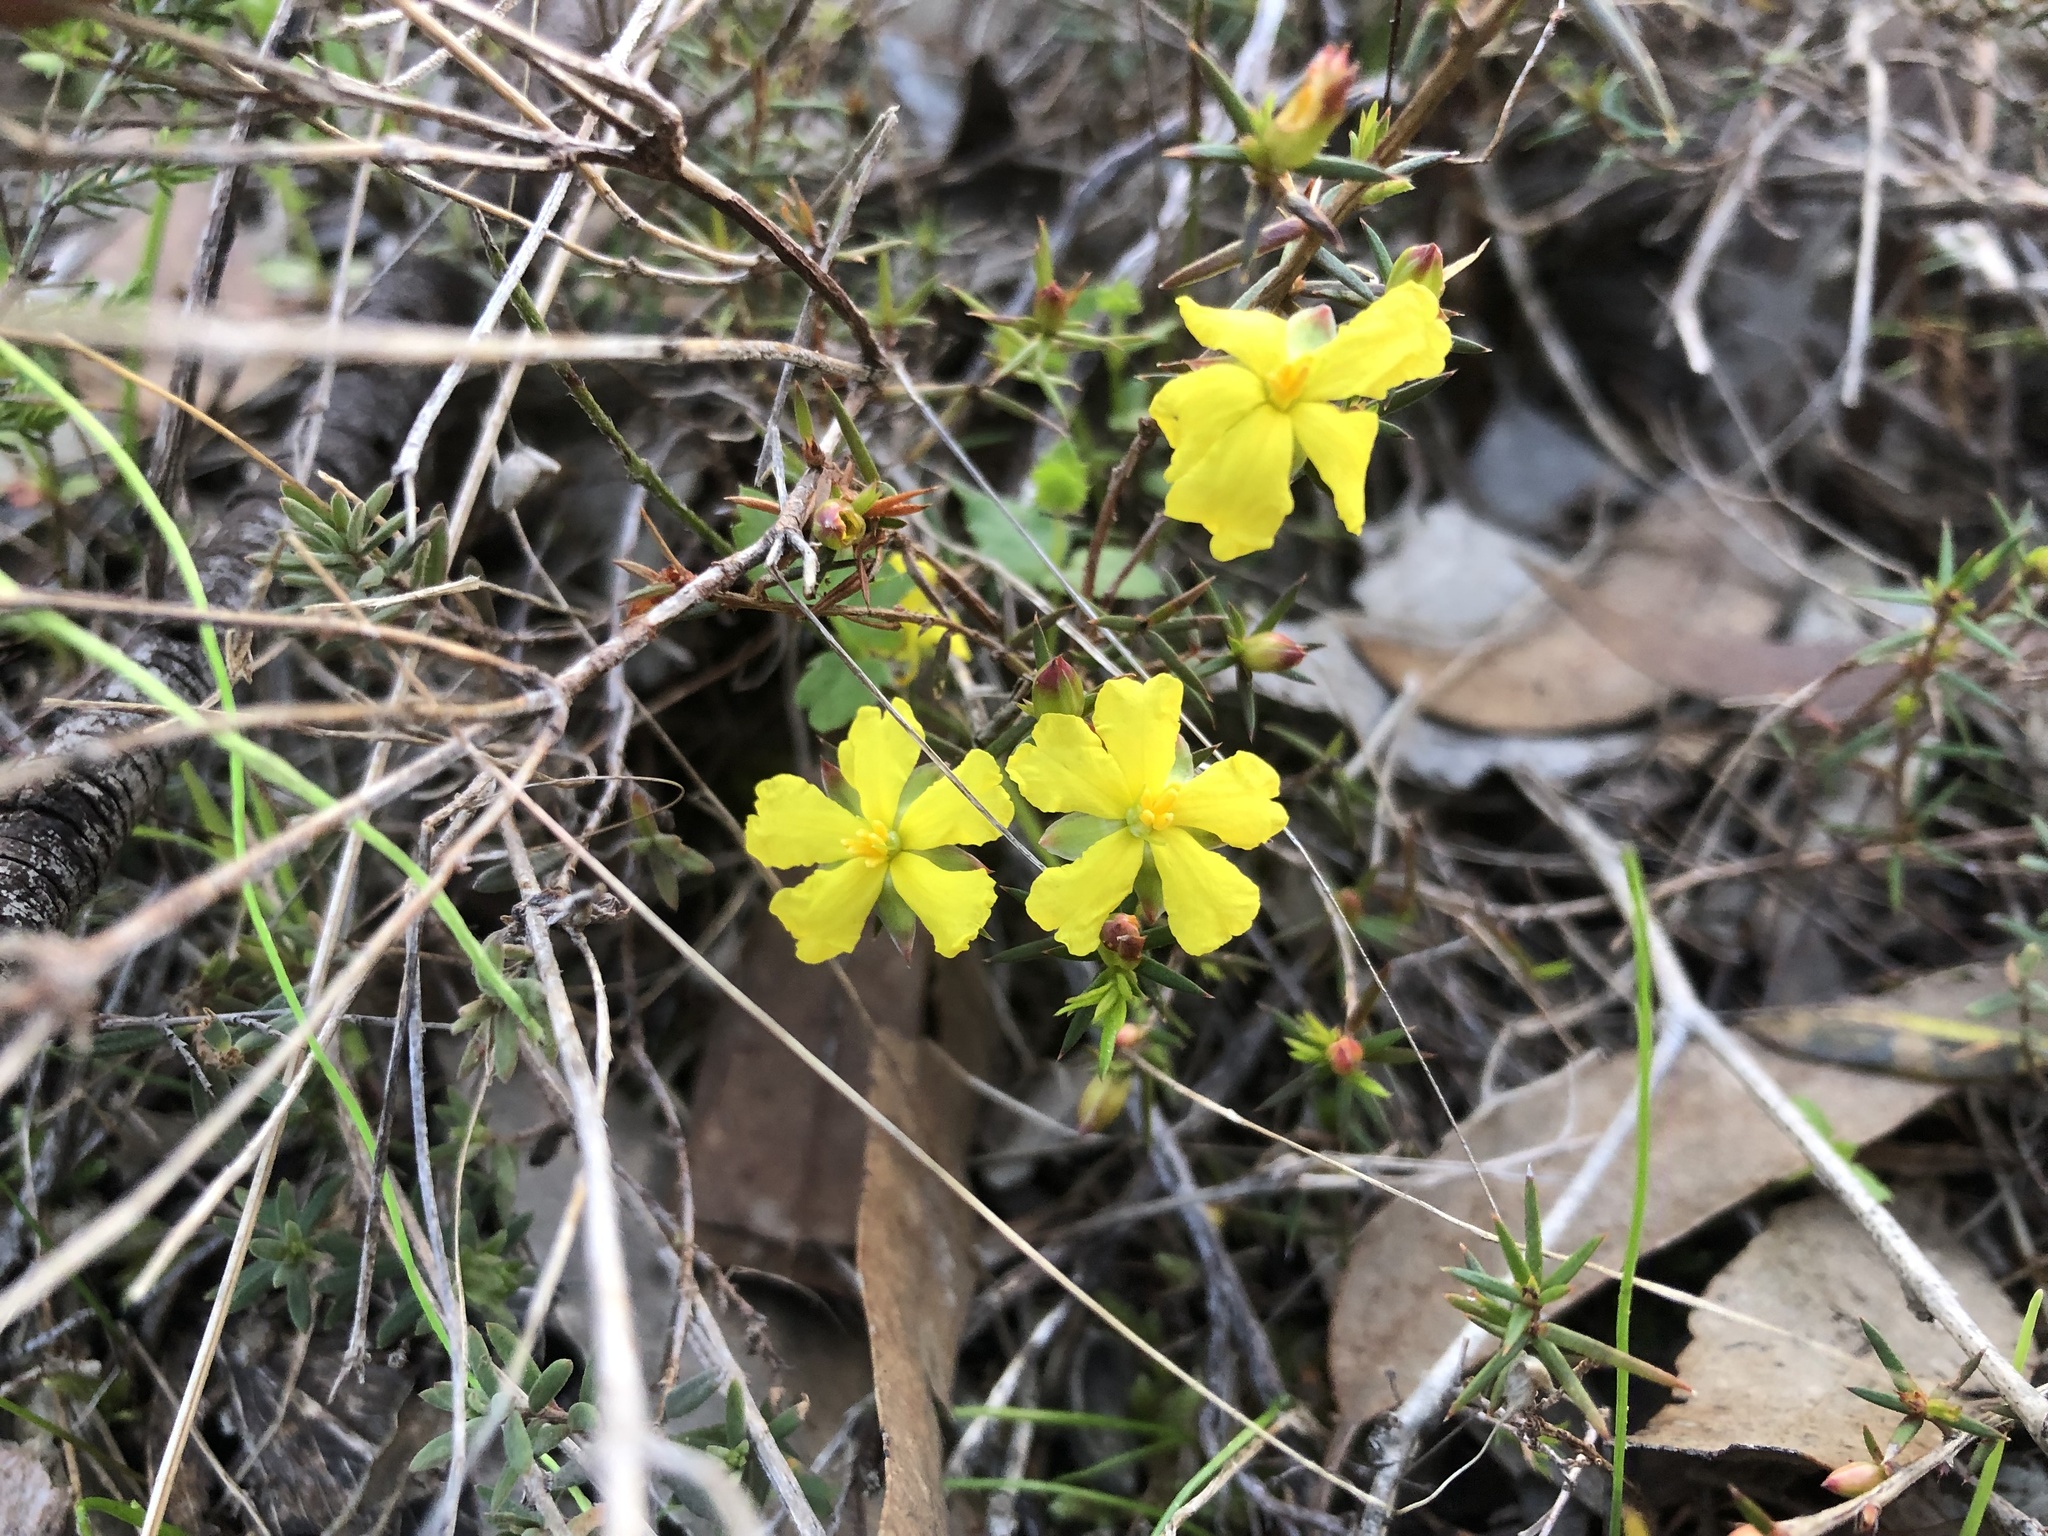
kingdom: Plantae
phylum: Tracheophyta
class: Magnoliopsida
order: Dilleniales
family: Dilleniaceae
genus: Hibbertia
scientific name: Hibbertia exutiacies
